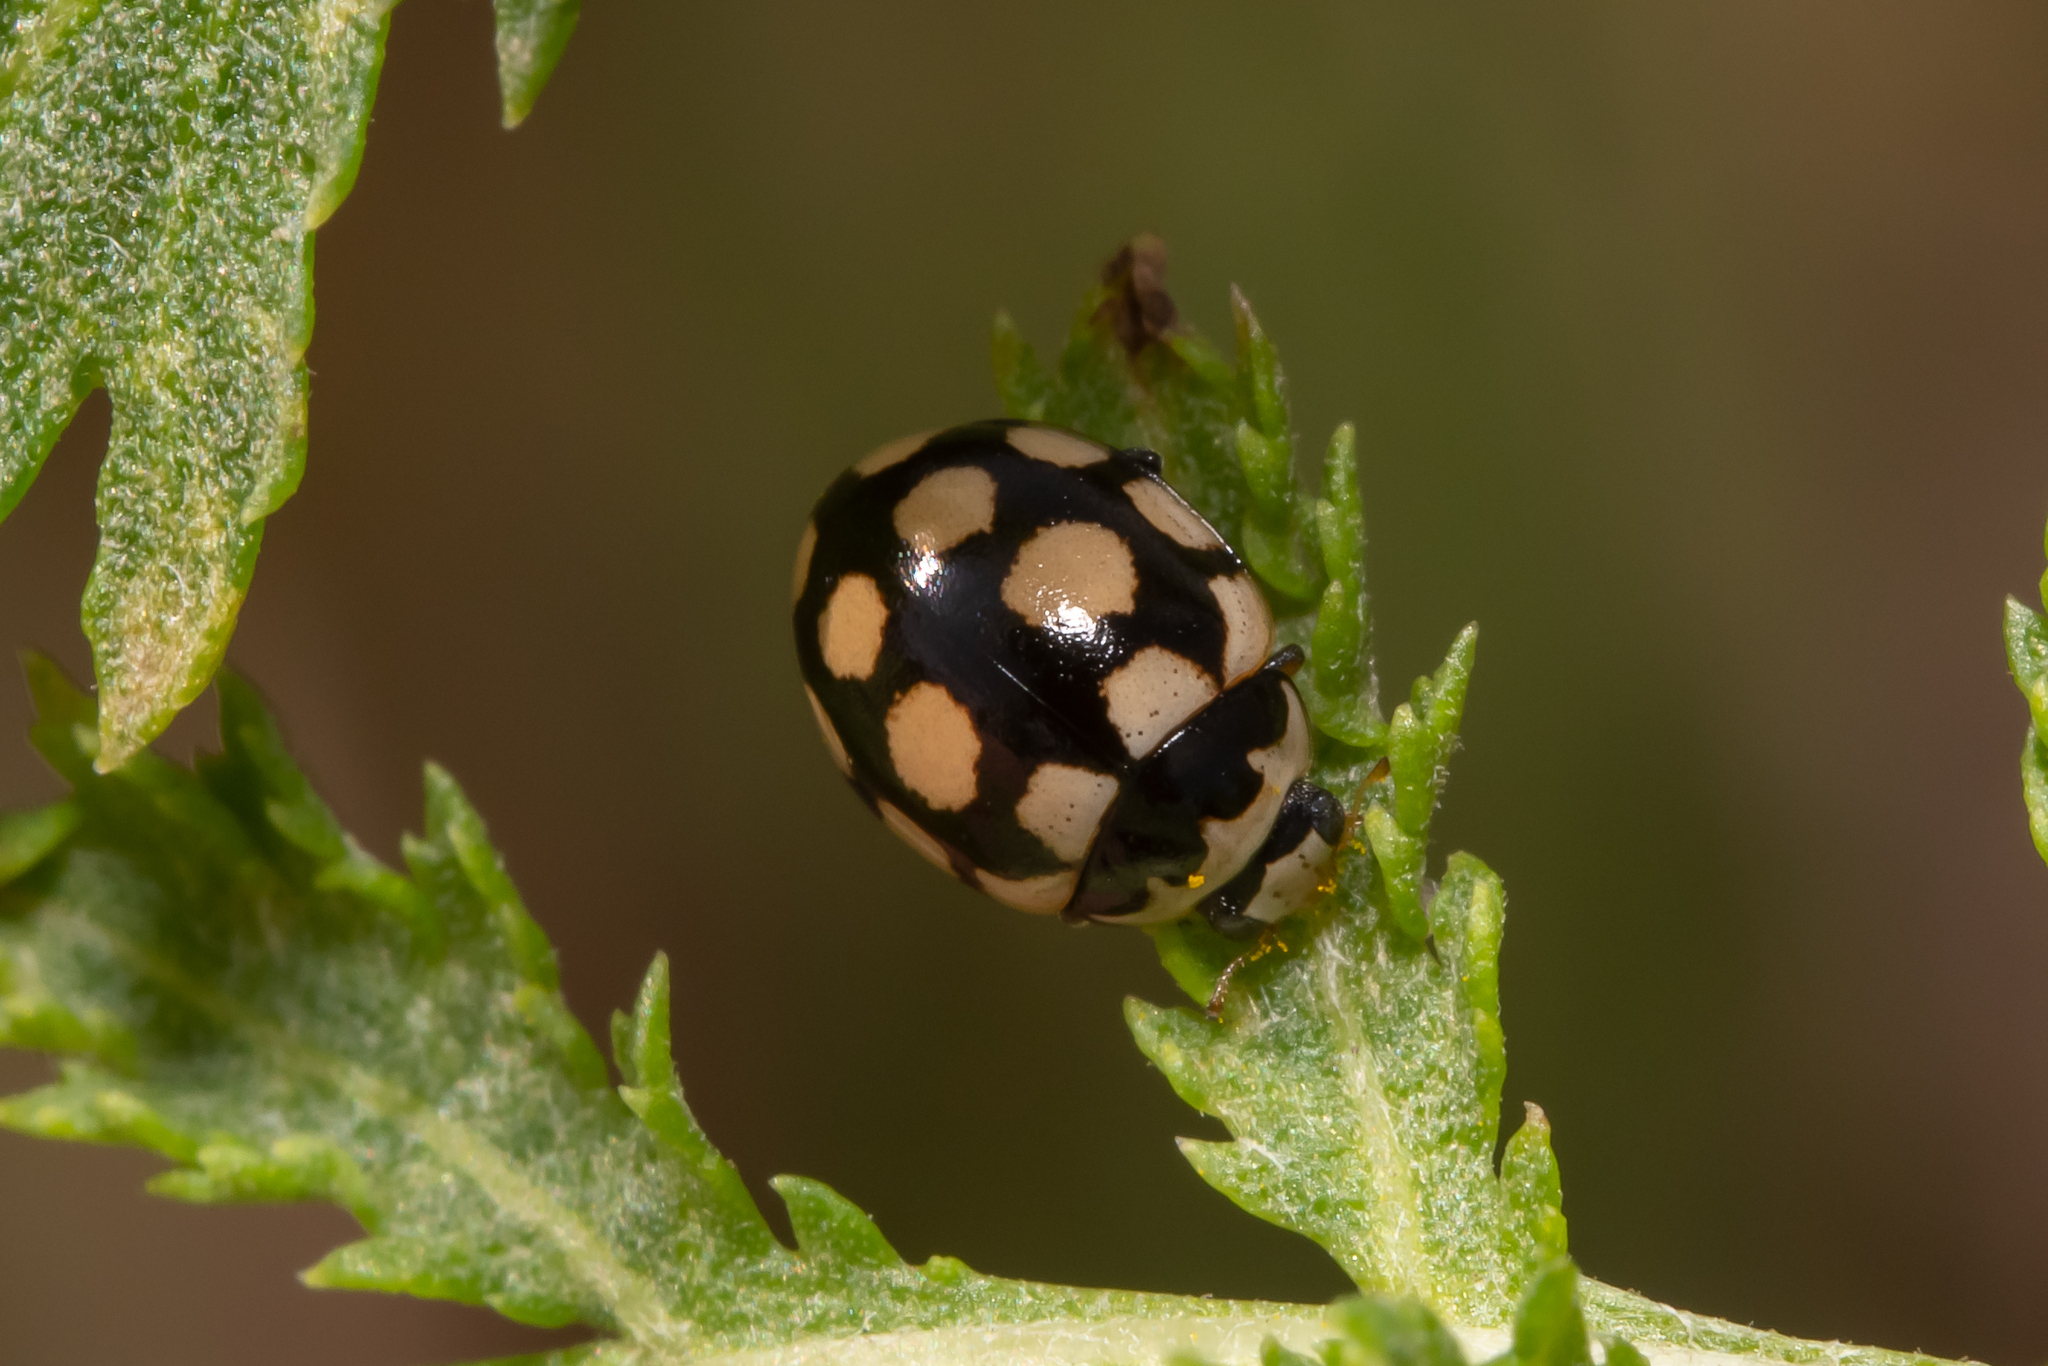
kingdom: Animalia
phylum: Arthropoda
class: Insecta
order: Coleoptera
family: Coccinellidae
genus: Coccinula
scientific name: Coccinula quatuordecimpustulata
